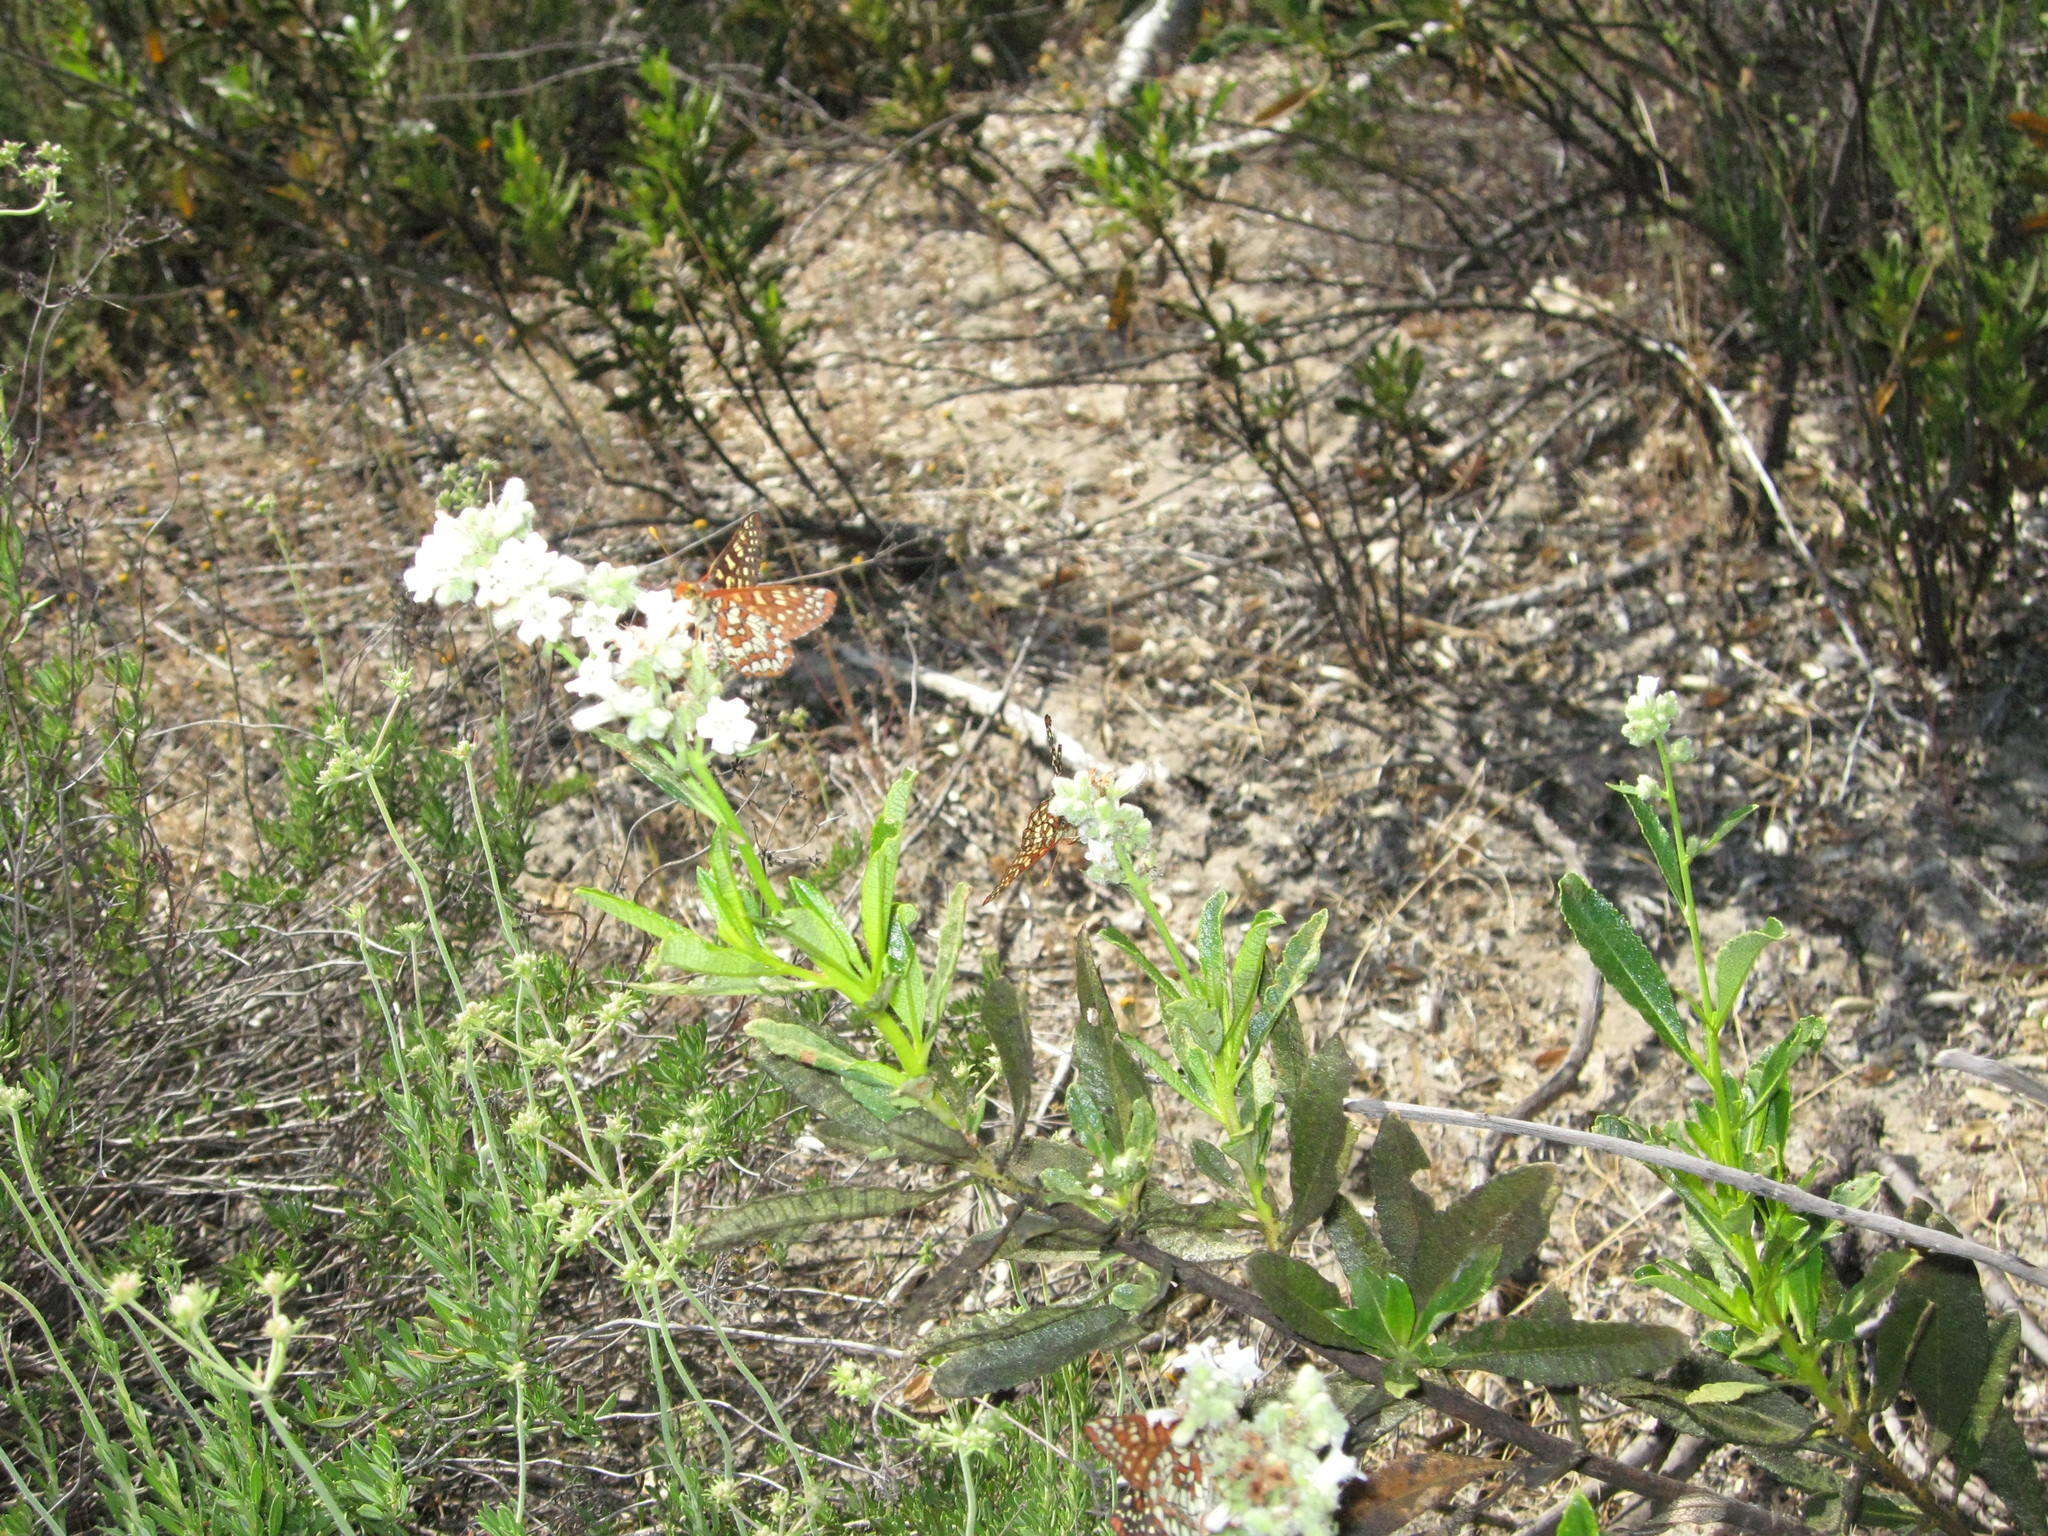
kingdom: Animalia
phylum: Arthropoda
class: Insecta
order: Lepidoptera
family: Nymphalidae
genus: Occidryas
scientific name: Occidryas chalcedona
